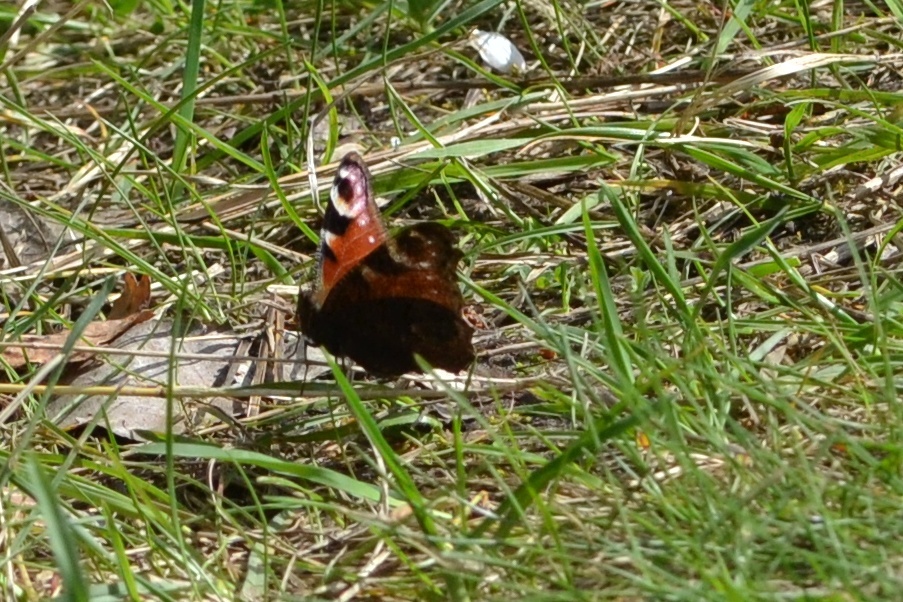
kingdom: Animalia
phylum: Arthropoda
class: Insecta
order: Lepidoptera
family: Nymphalidae
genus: Aglais
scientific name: Aglais io
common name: Peacock
